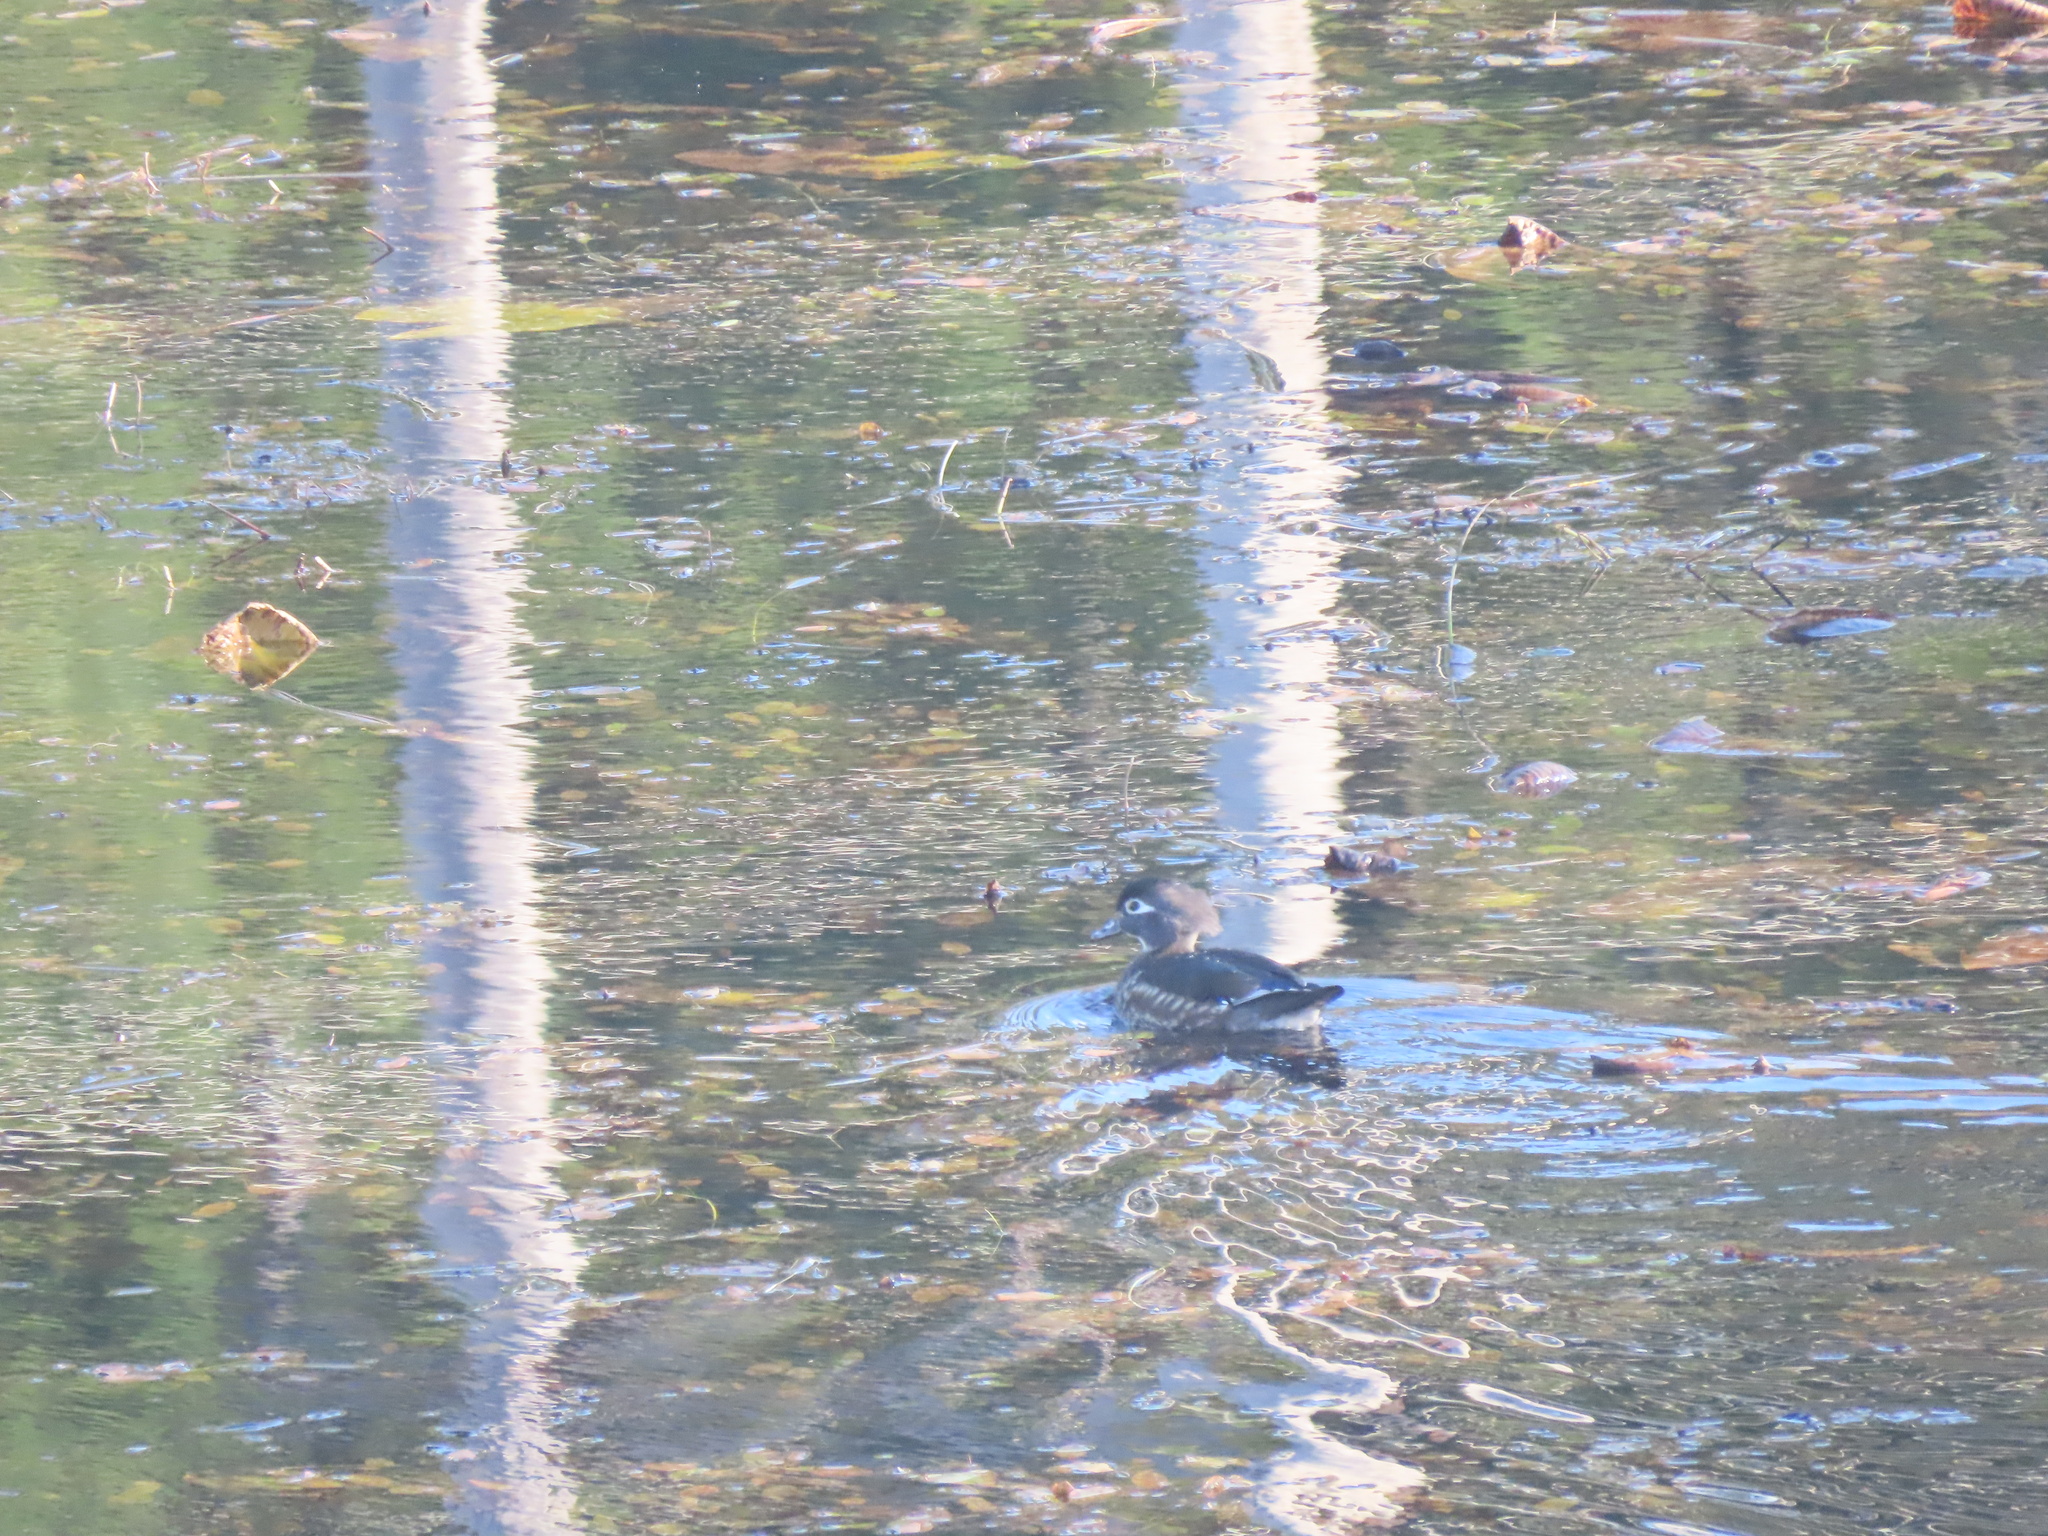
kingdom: Animalia
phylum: Chordata
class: Aves
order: Anseriformes
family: Anatidae
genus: Aix
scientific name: Aix sponsa
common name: Wood duck
